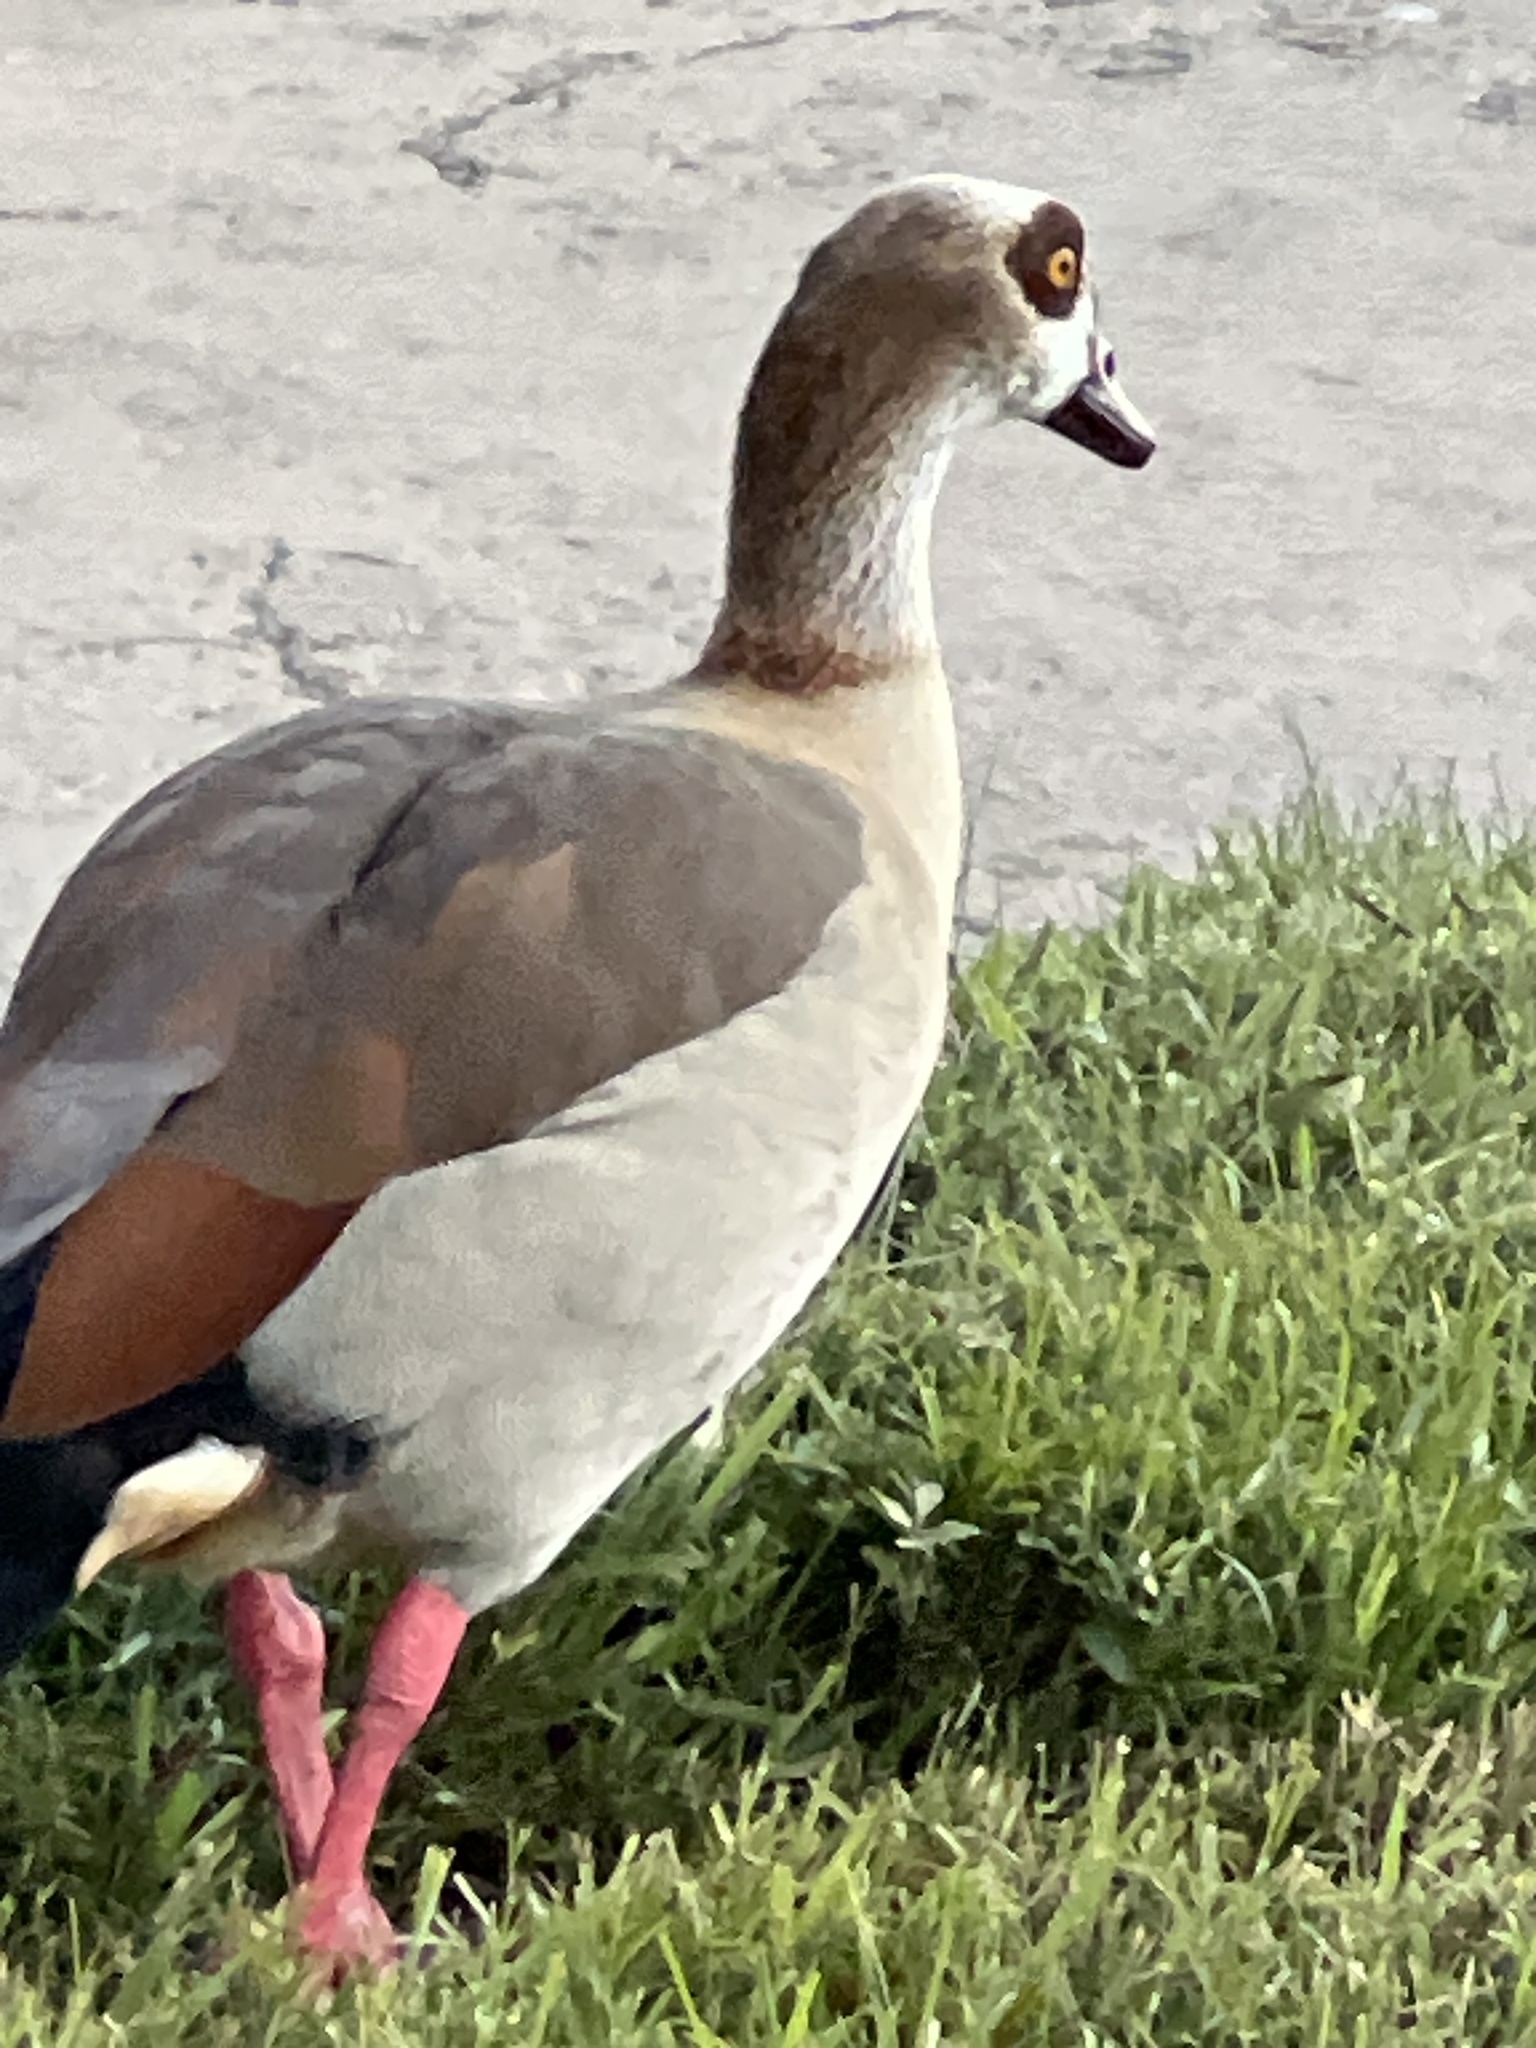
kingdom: Animalia
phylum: Chordata
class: Aves
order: Anseriformes
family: Anatidae
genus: Alopochen
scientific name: Alopochen aegyptiaca
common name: Egyptian goose
